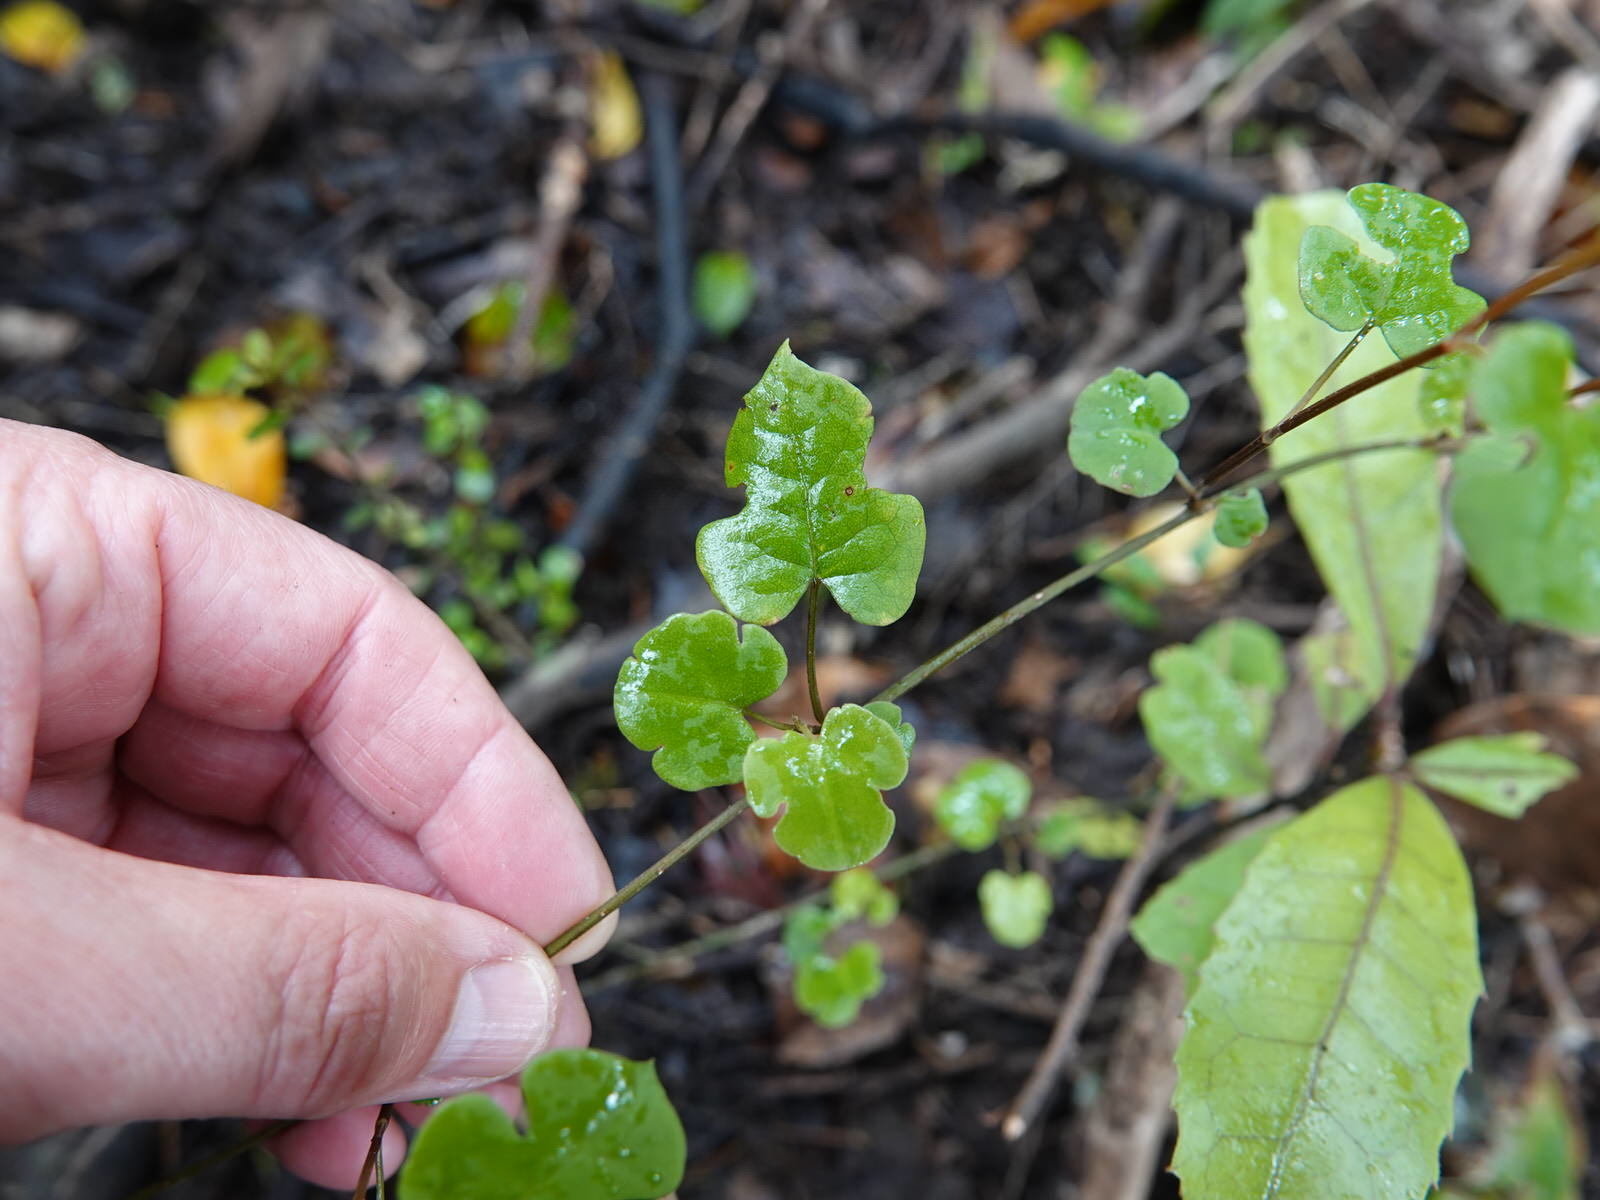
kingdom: Plantae
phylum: Tracheophyta
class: Magnoliopsida
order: Caryophyllales
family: Polygonaceae
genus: Muehlenbeckia
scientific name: Muehlenbeckia australis
